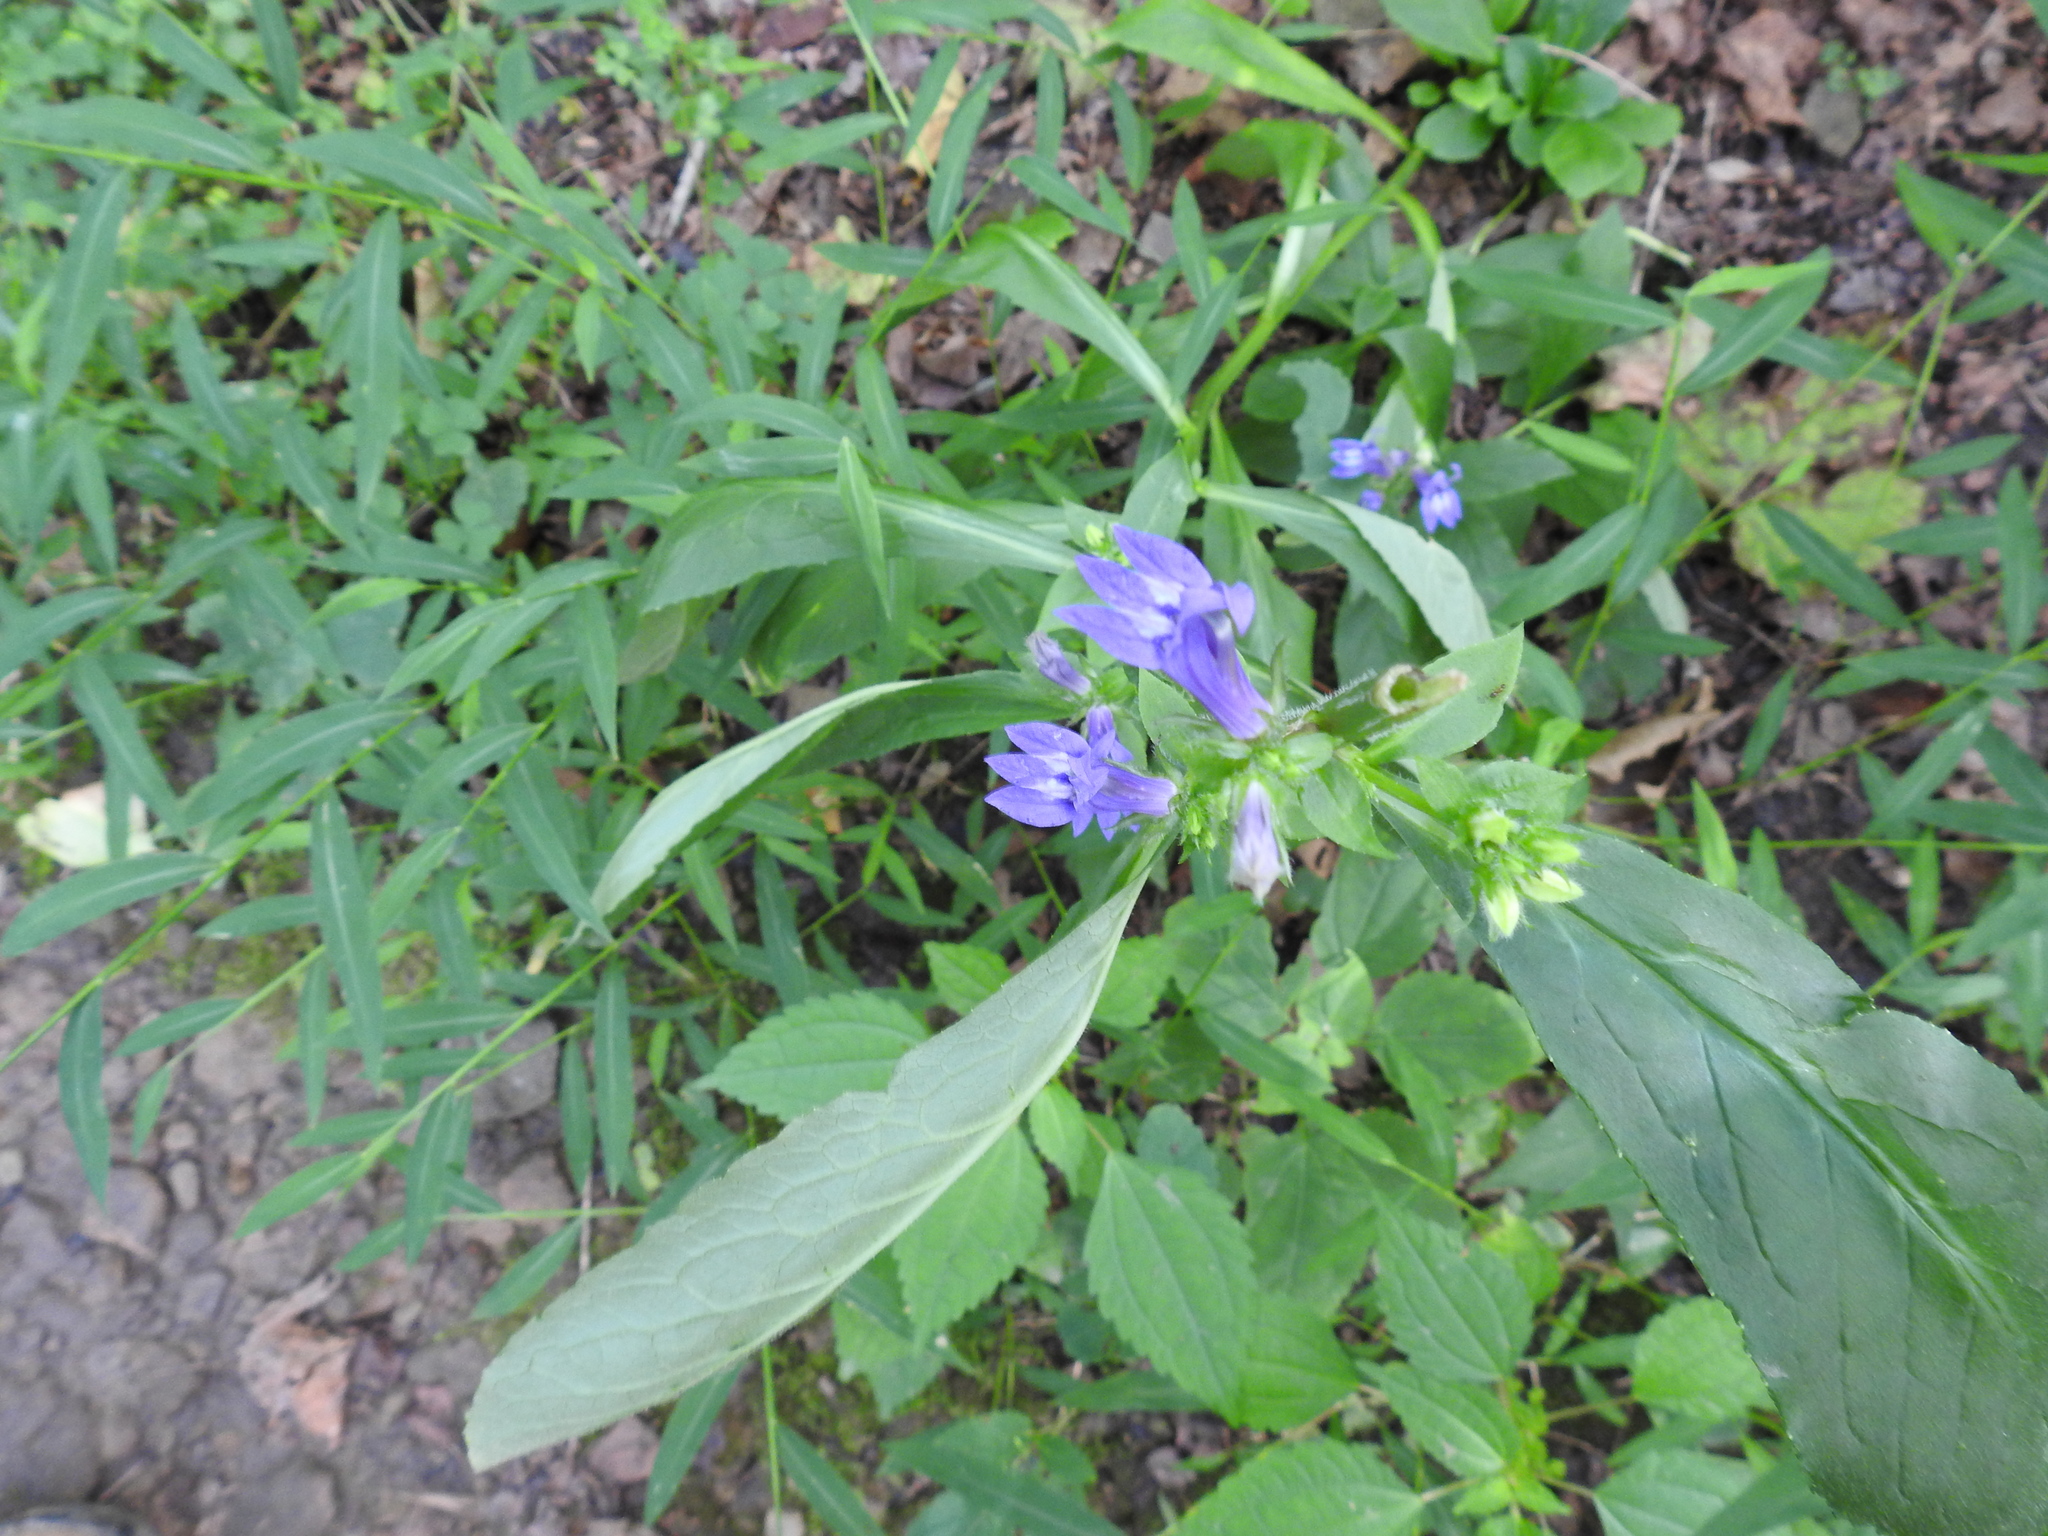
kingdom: Plantae
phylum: Tracheophyta
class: Magnoliopsida
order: Asterales
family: Campanulaceae
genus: Lobelia
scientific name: Lobelia siphilitica
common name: Great lobelia
